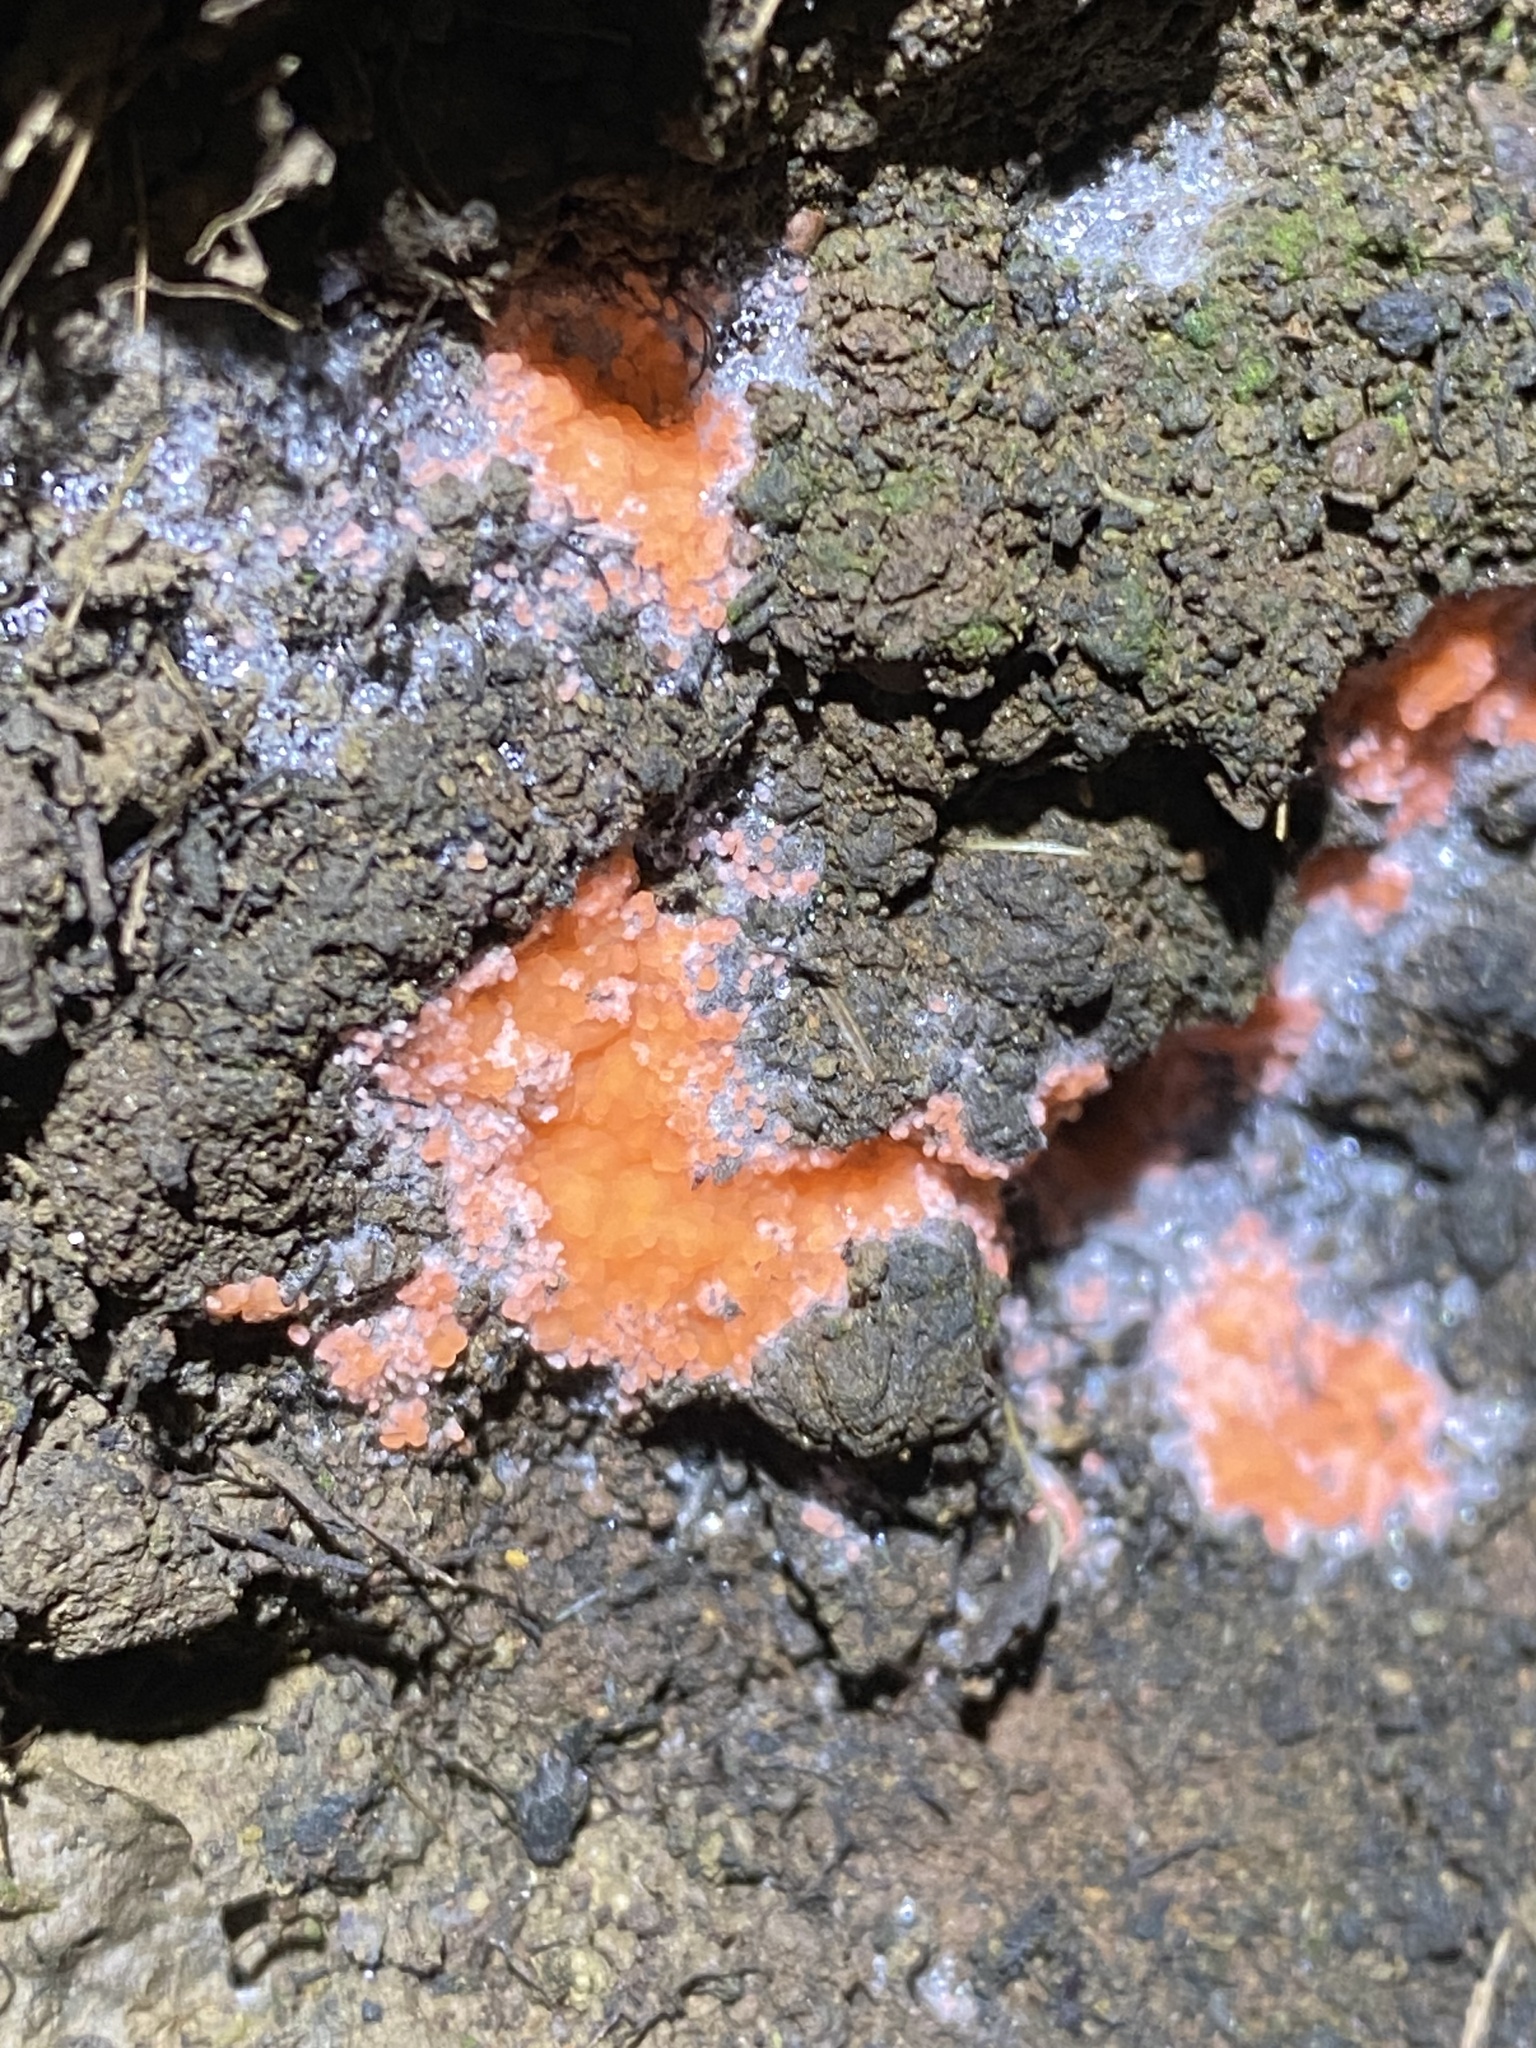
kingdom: Fungi
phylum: Ascomycota
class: Pezizomycetes
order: Pezizales
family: Pyronemataceae
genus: Pyronema
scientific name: Pyronema omphalodes
